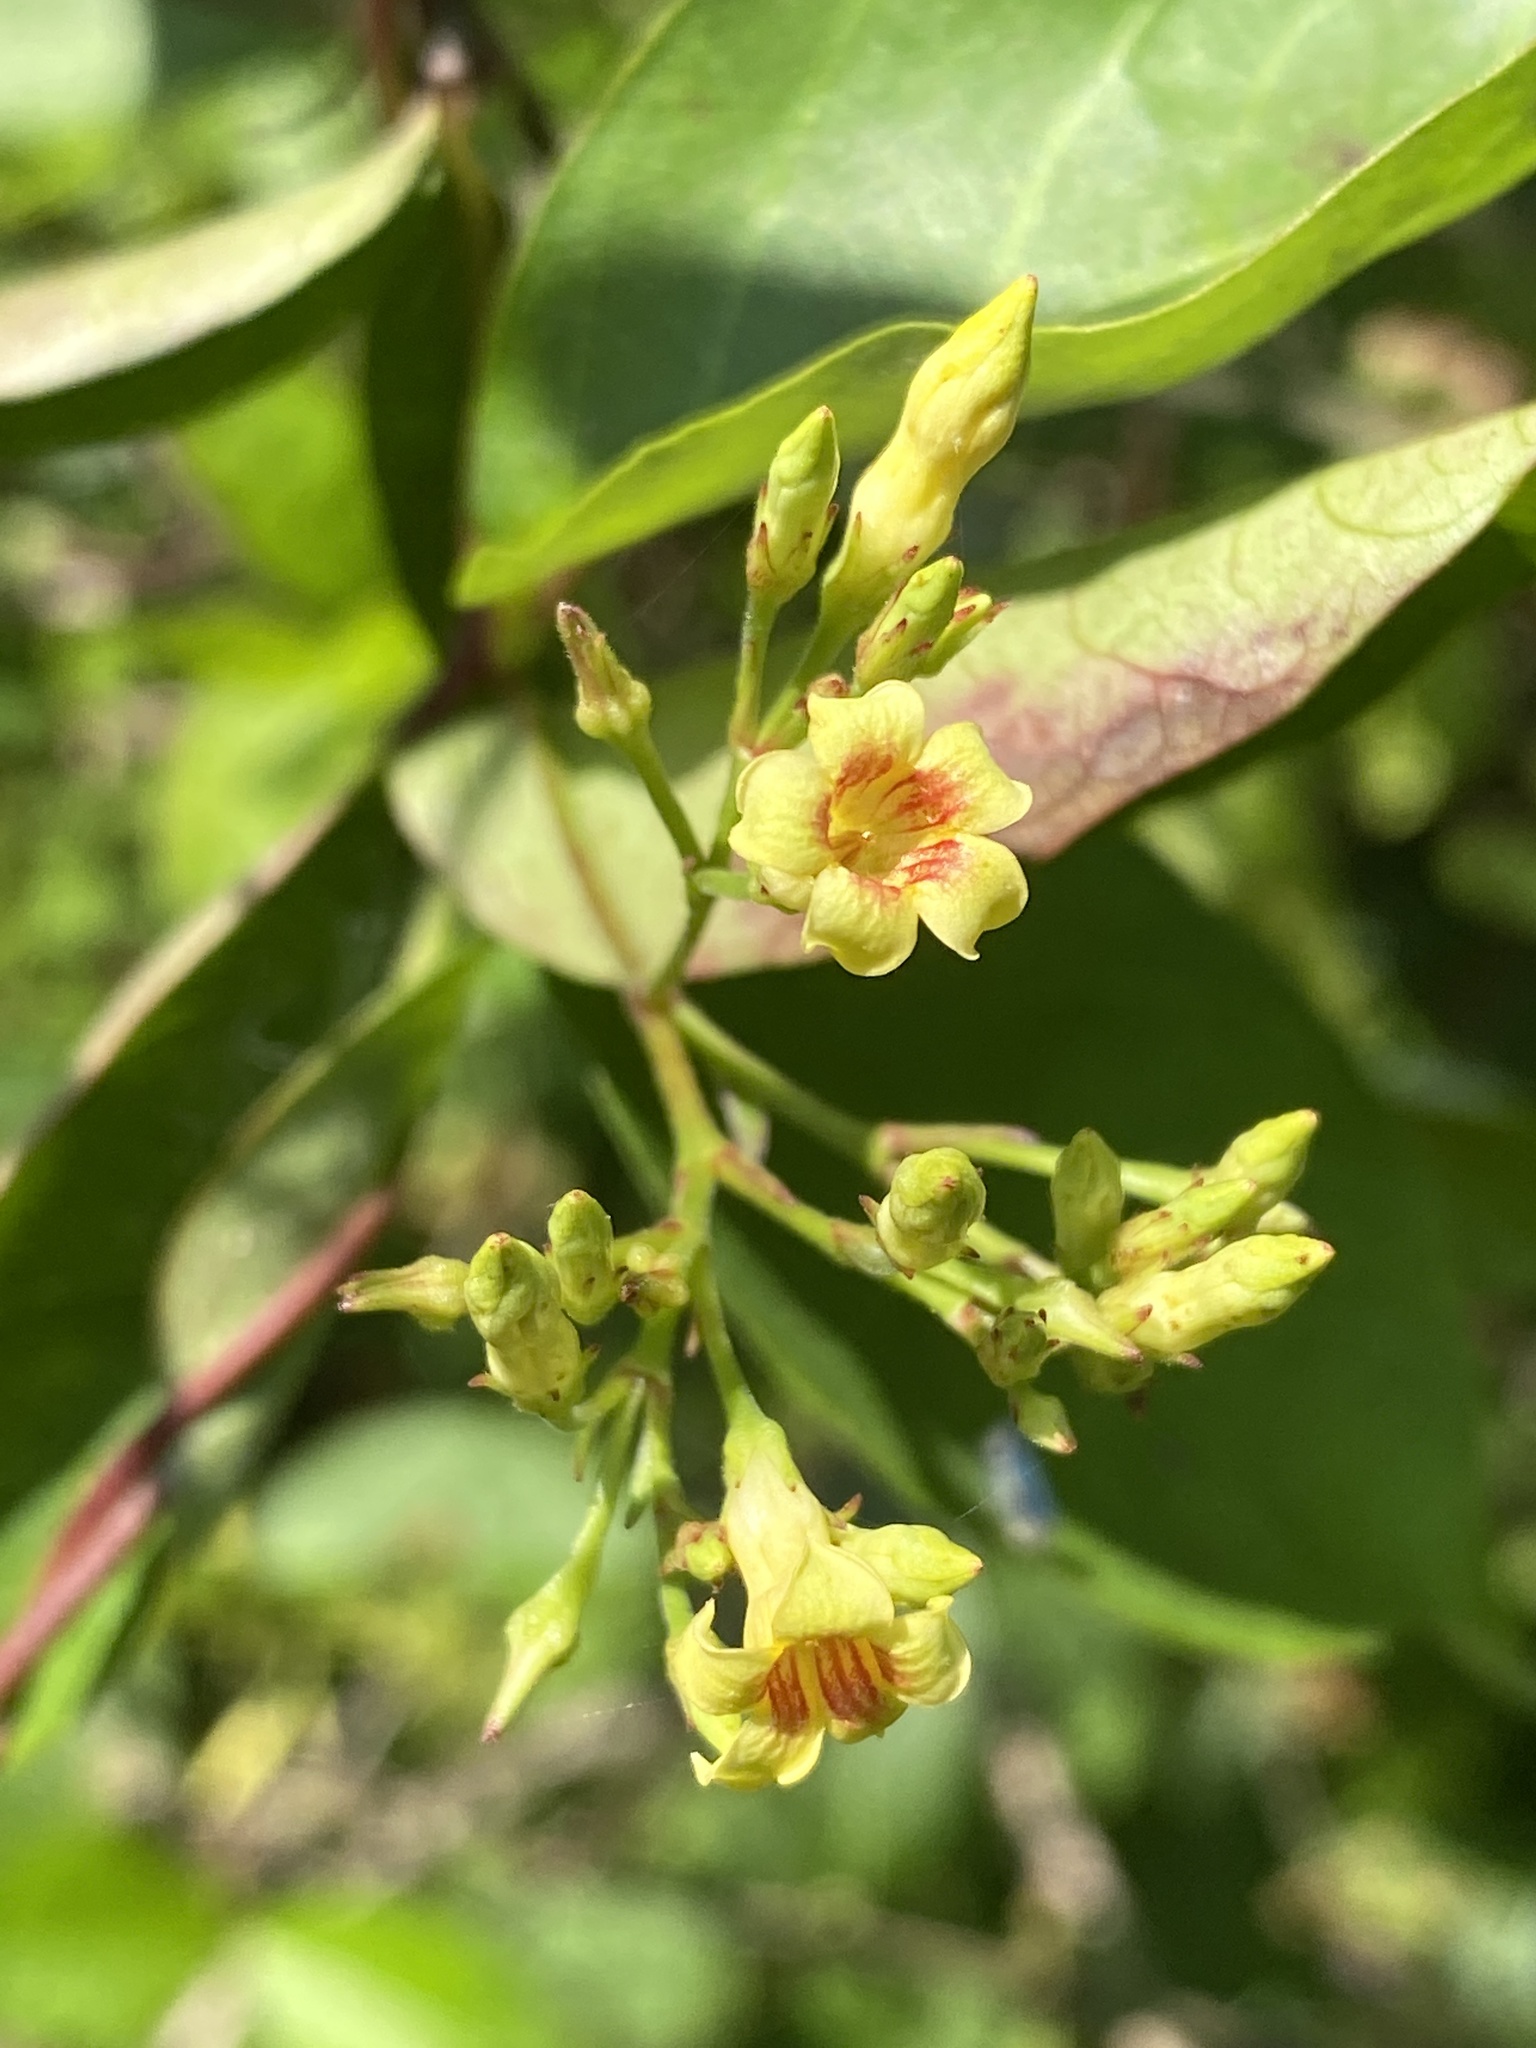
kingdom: Plantae
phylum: Tracheophyta
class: Magnoliopsida
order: Gentianales
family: Apocynaceae
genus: Thyrsanthella
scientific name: Thyrsanthella difformis
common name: Climbing dogbane
